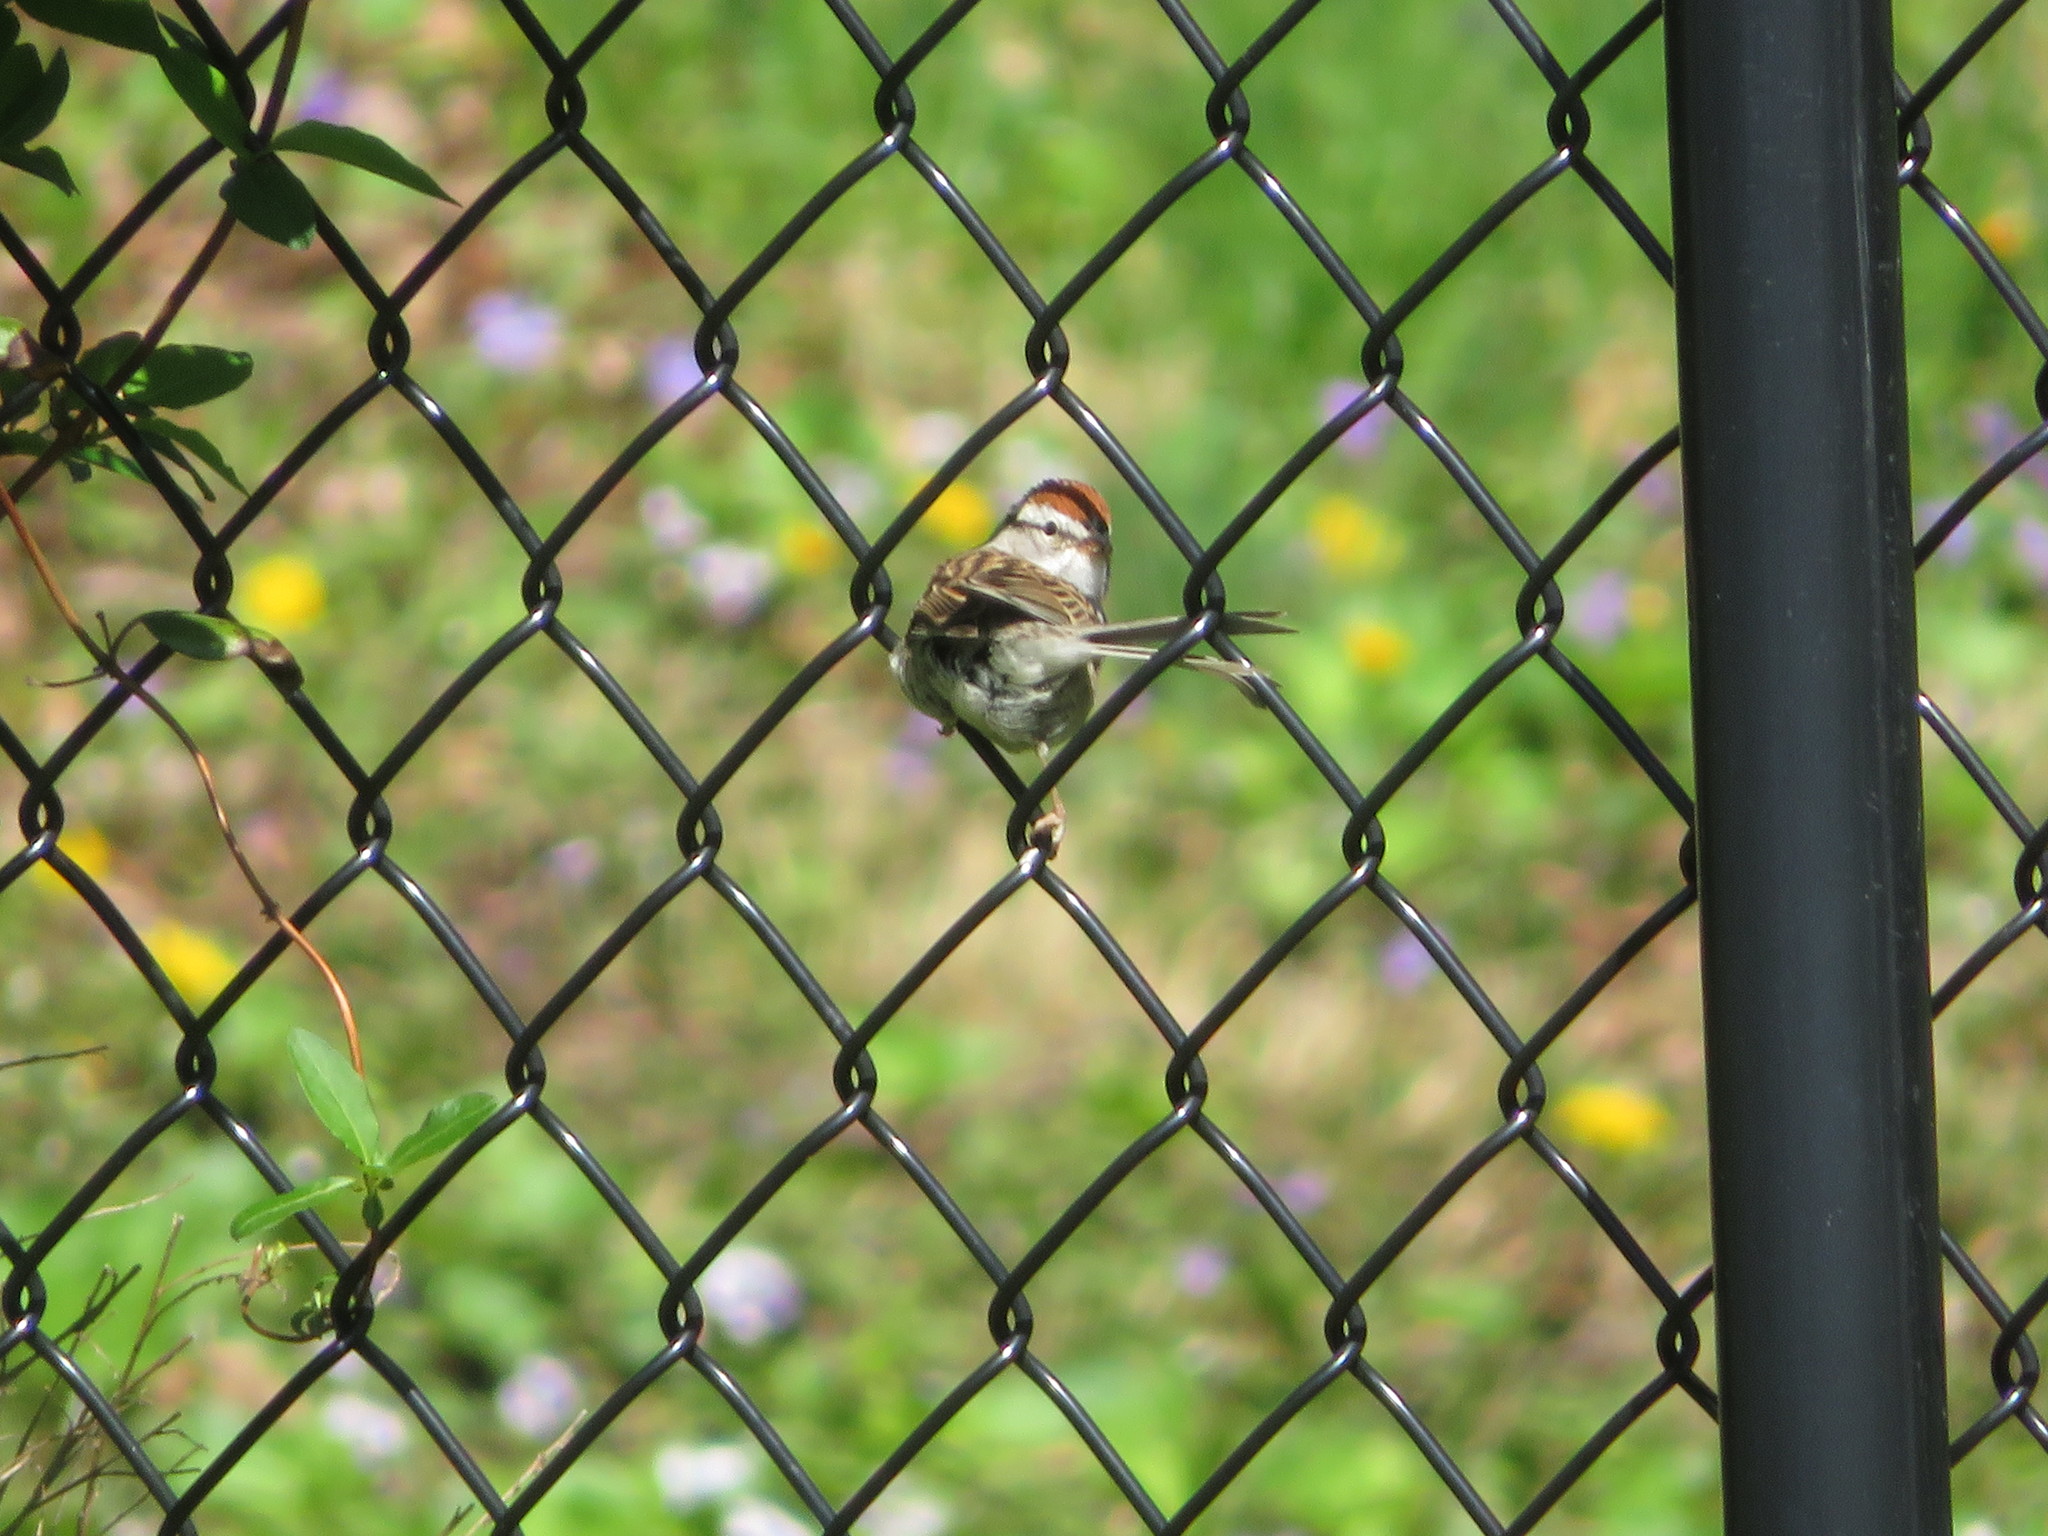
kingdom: Animalia
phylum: Chordata
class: Aves
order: Passeriformes
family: Passerellidae
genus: Spizella
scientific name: Spizella passerina
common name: Chipping sparrow
